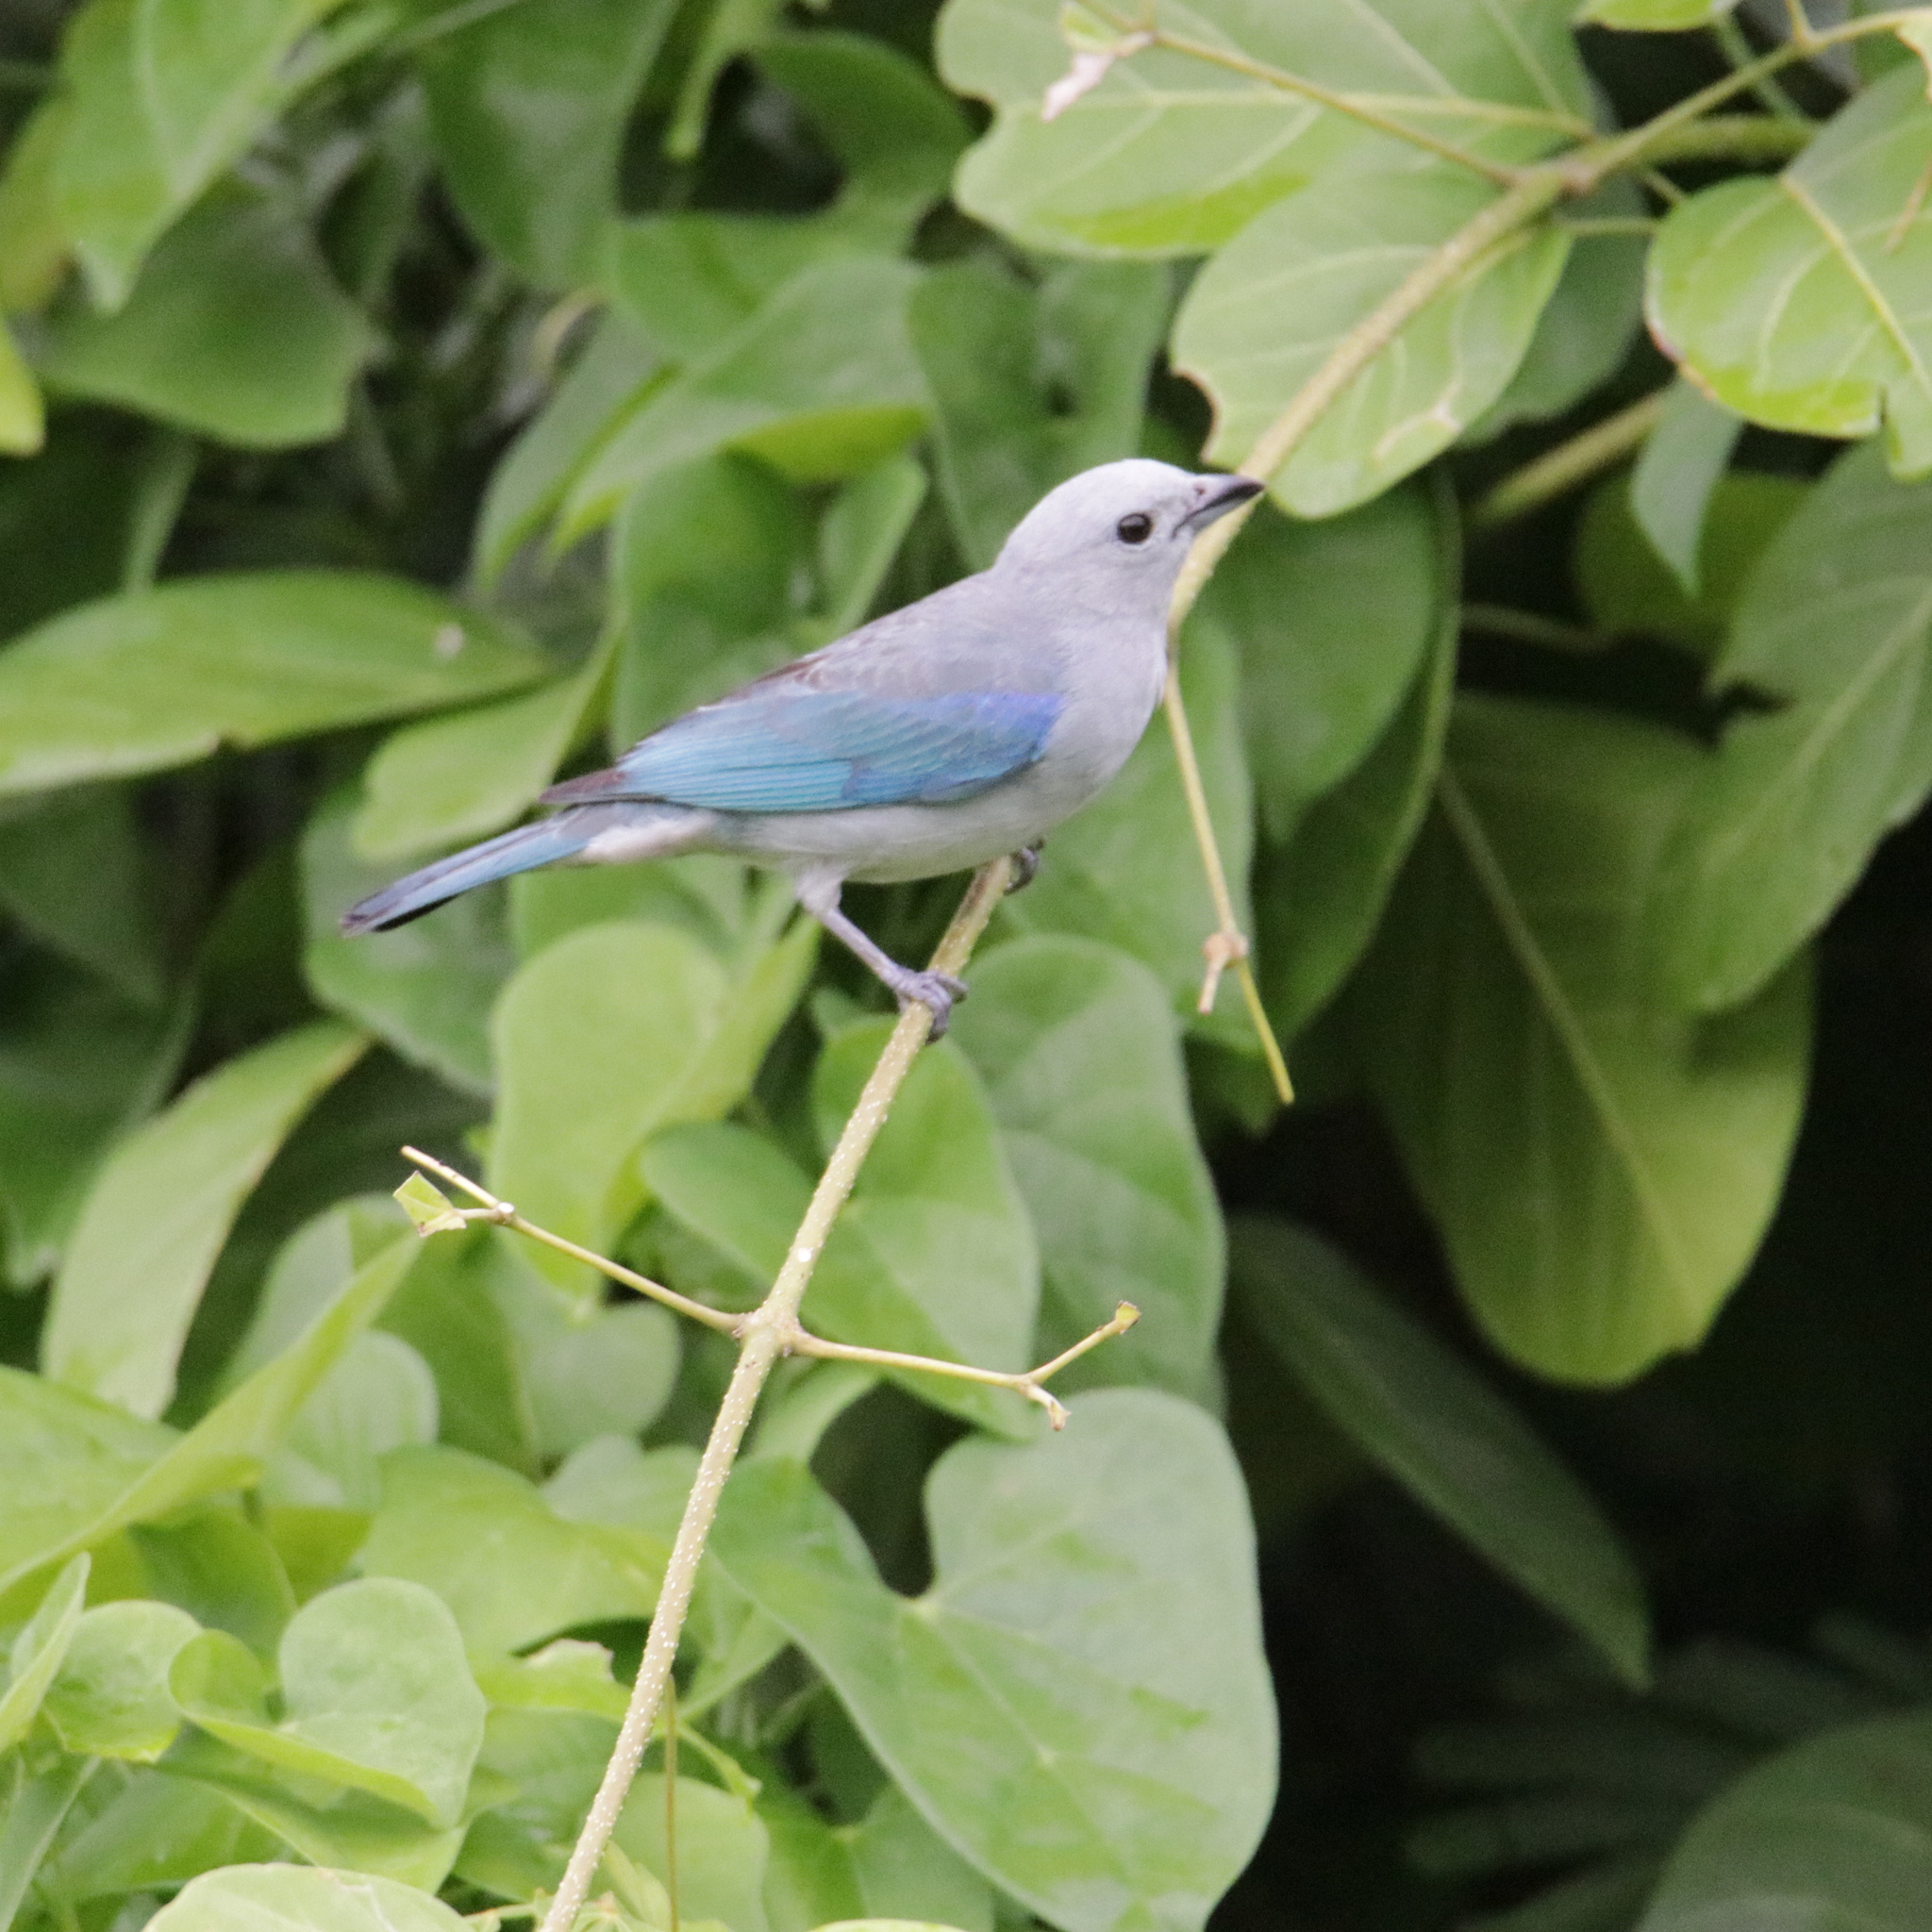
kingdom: Animalia
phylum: Chordata
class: Aves
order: Passeriformes
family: Thraupidae
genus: Thraupis
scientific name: Thraupis episcopus
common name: Blue-grey tanager
